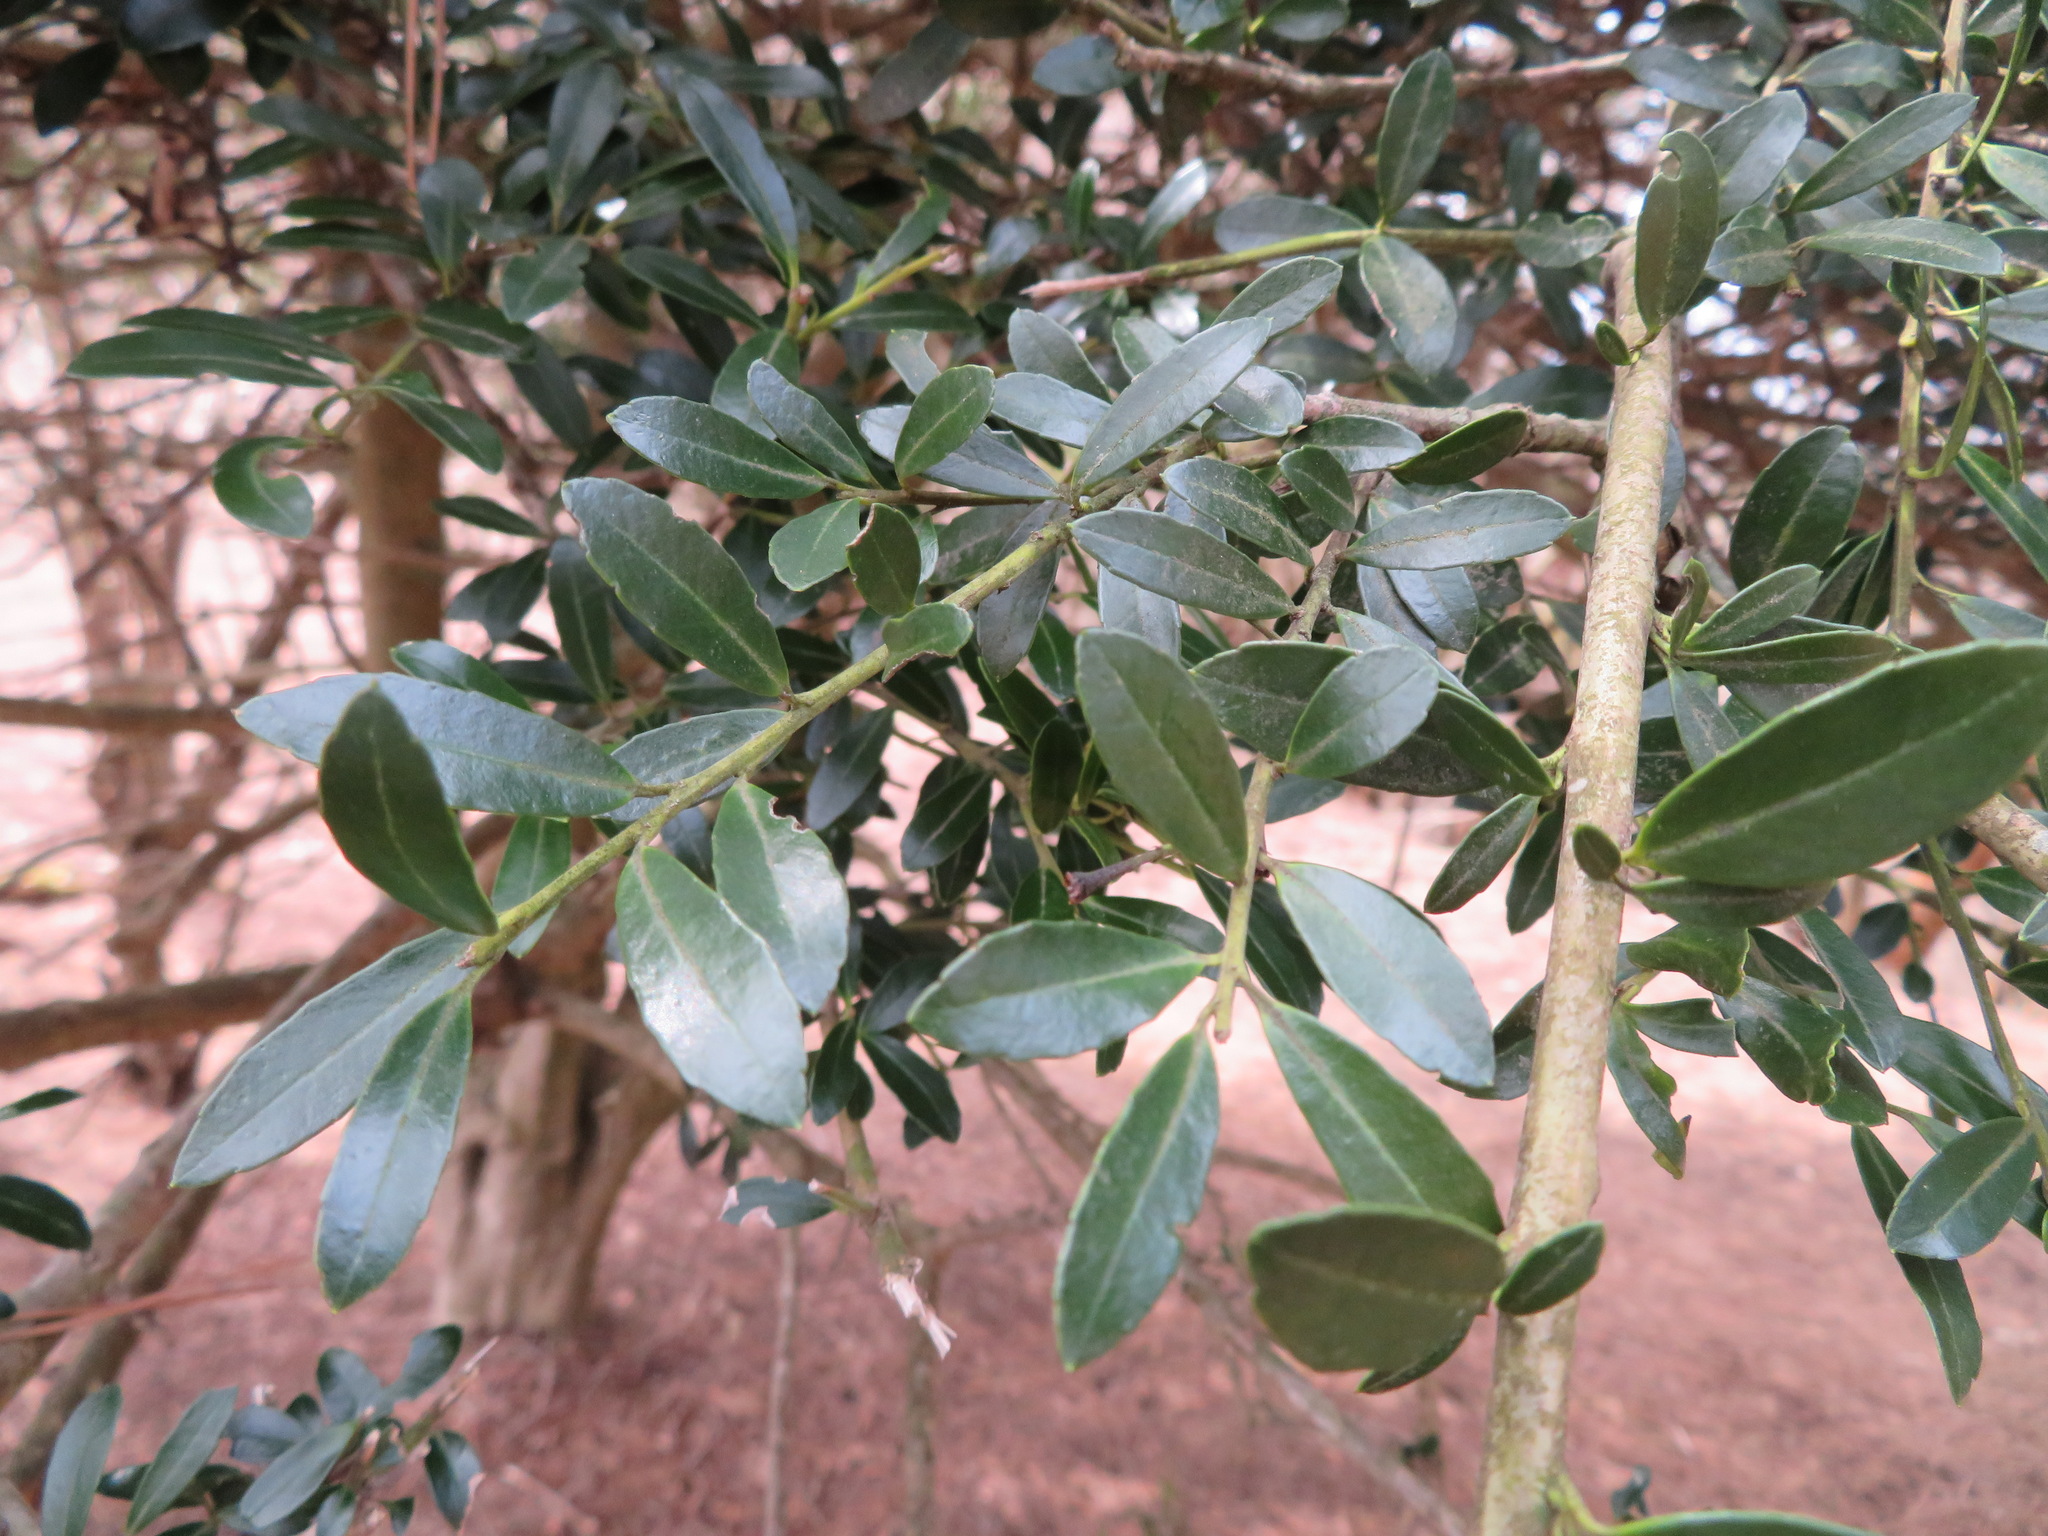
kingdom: Plantae
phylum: Tracheophyta
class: Magnoliopsida
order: Aquifoliales
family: Aquifoliaceae
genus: Ilex
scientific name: Ilex crenata
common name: Japanese holly
